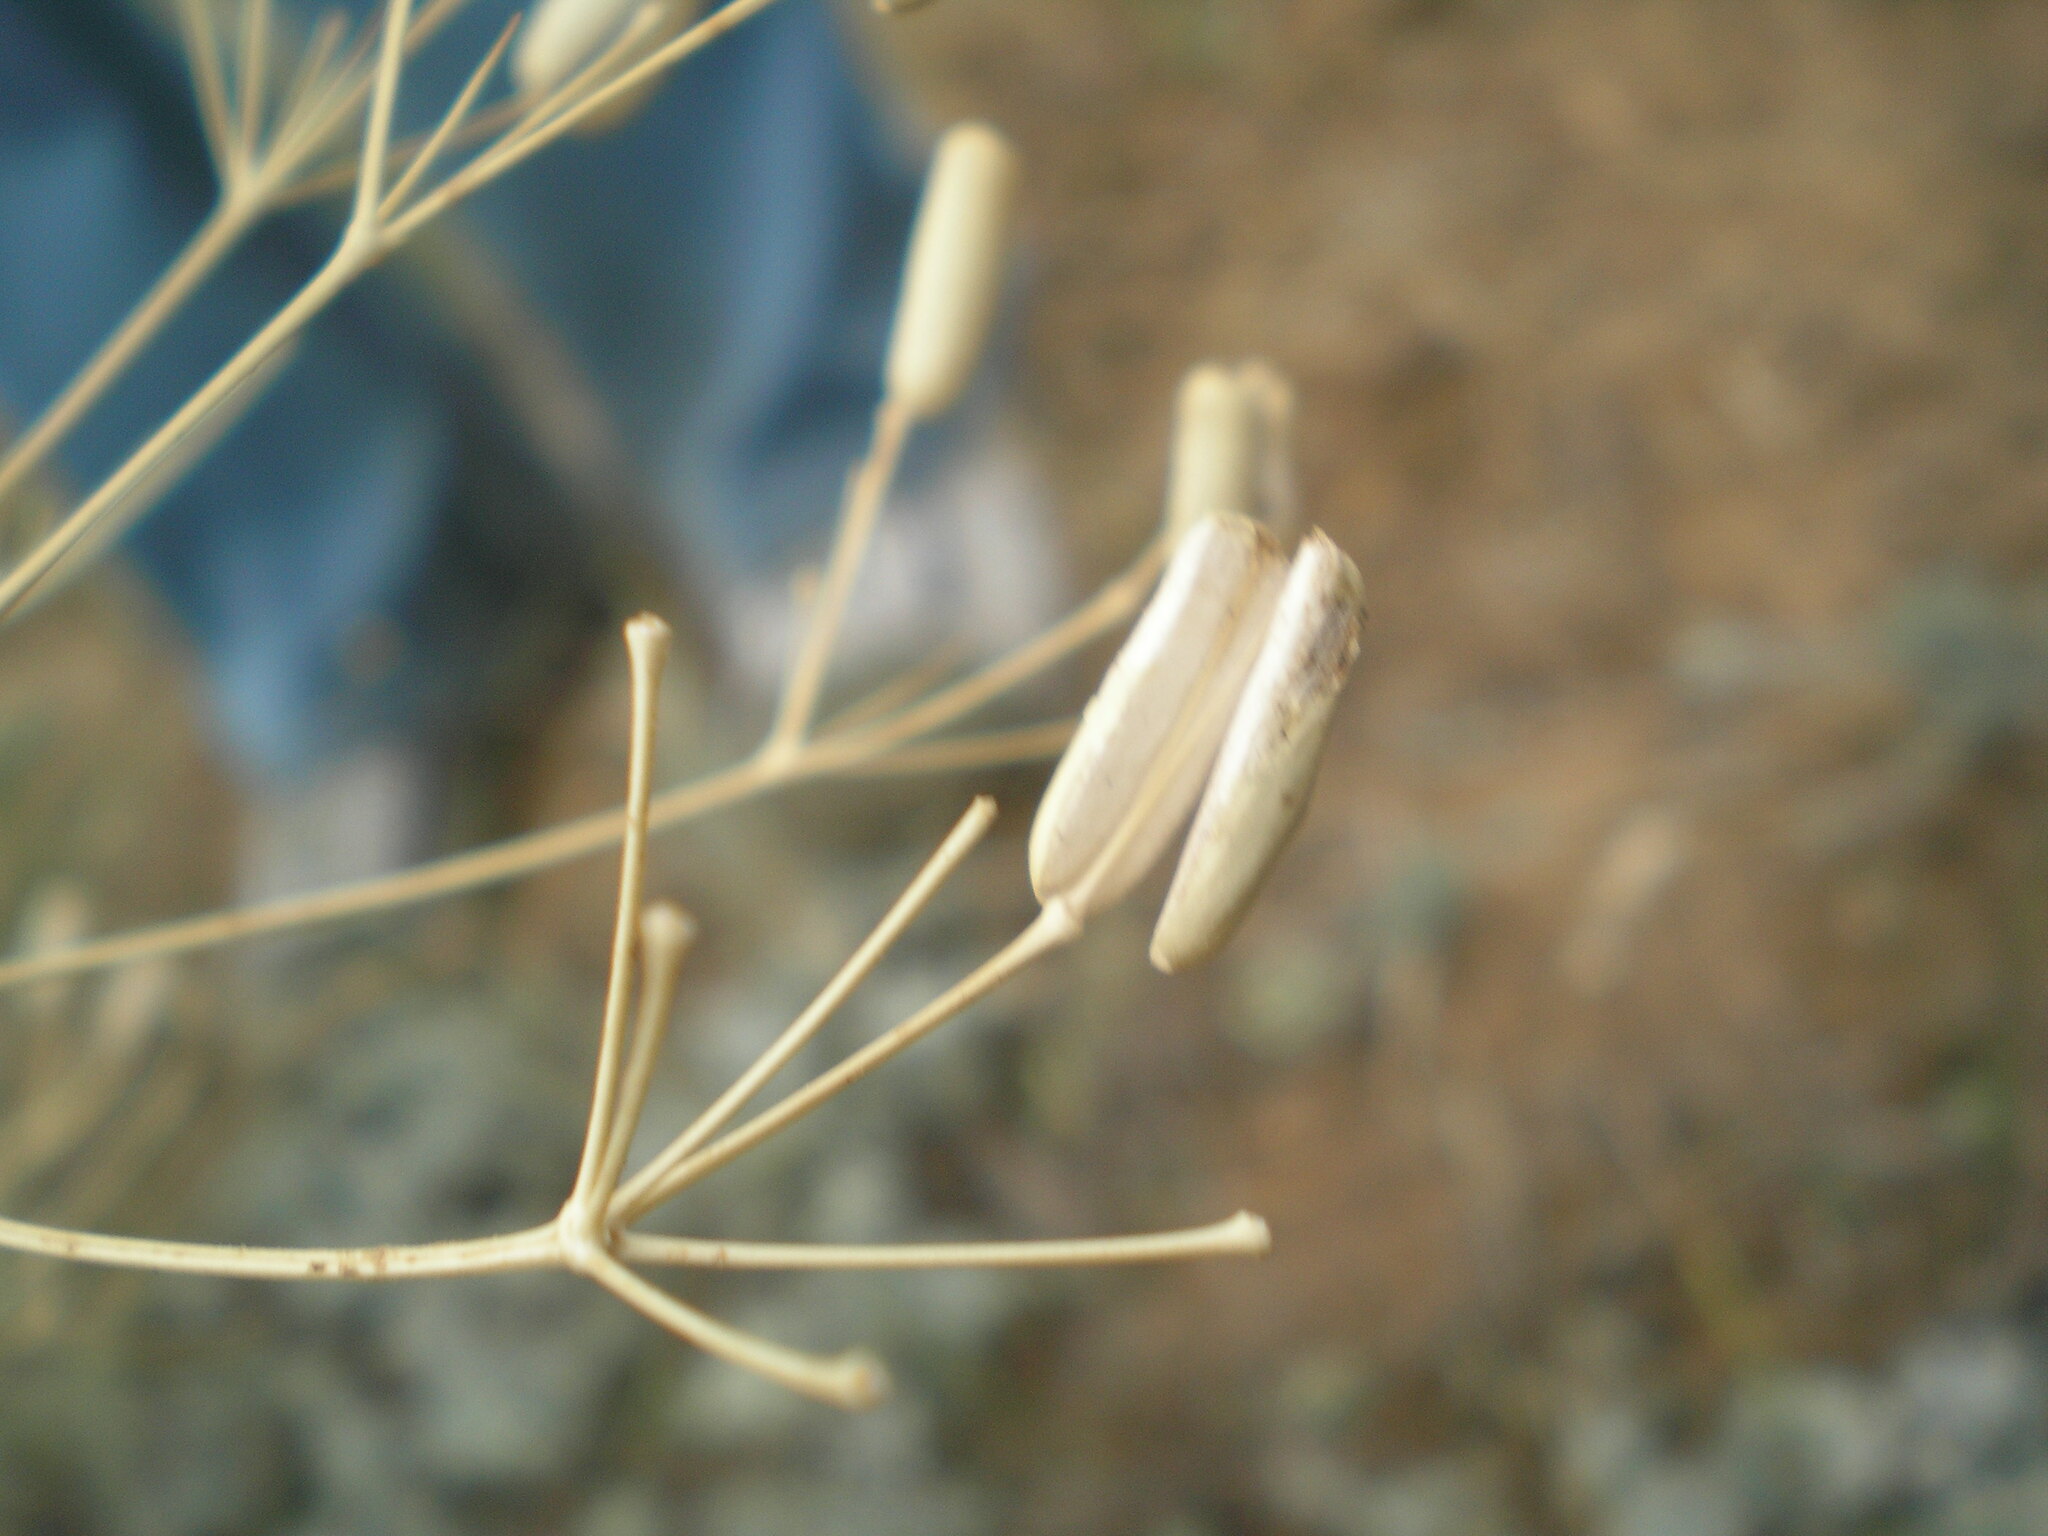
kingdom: Plantae
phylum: Tracheophyta
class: Magnoliopsida
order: Apiales
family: Apiaceae
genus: Prangos
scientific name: Prangos odontalgica
